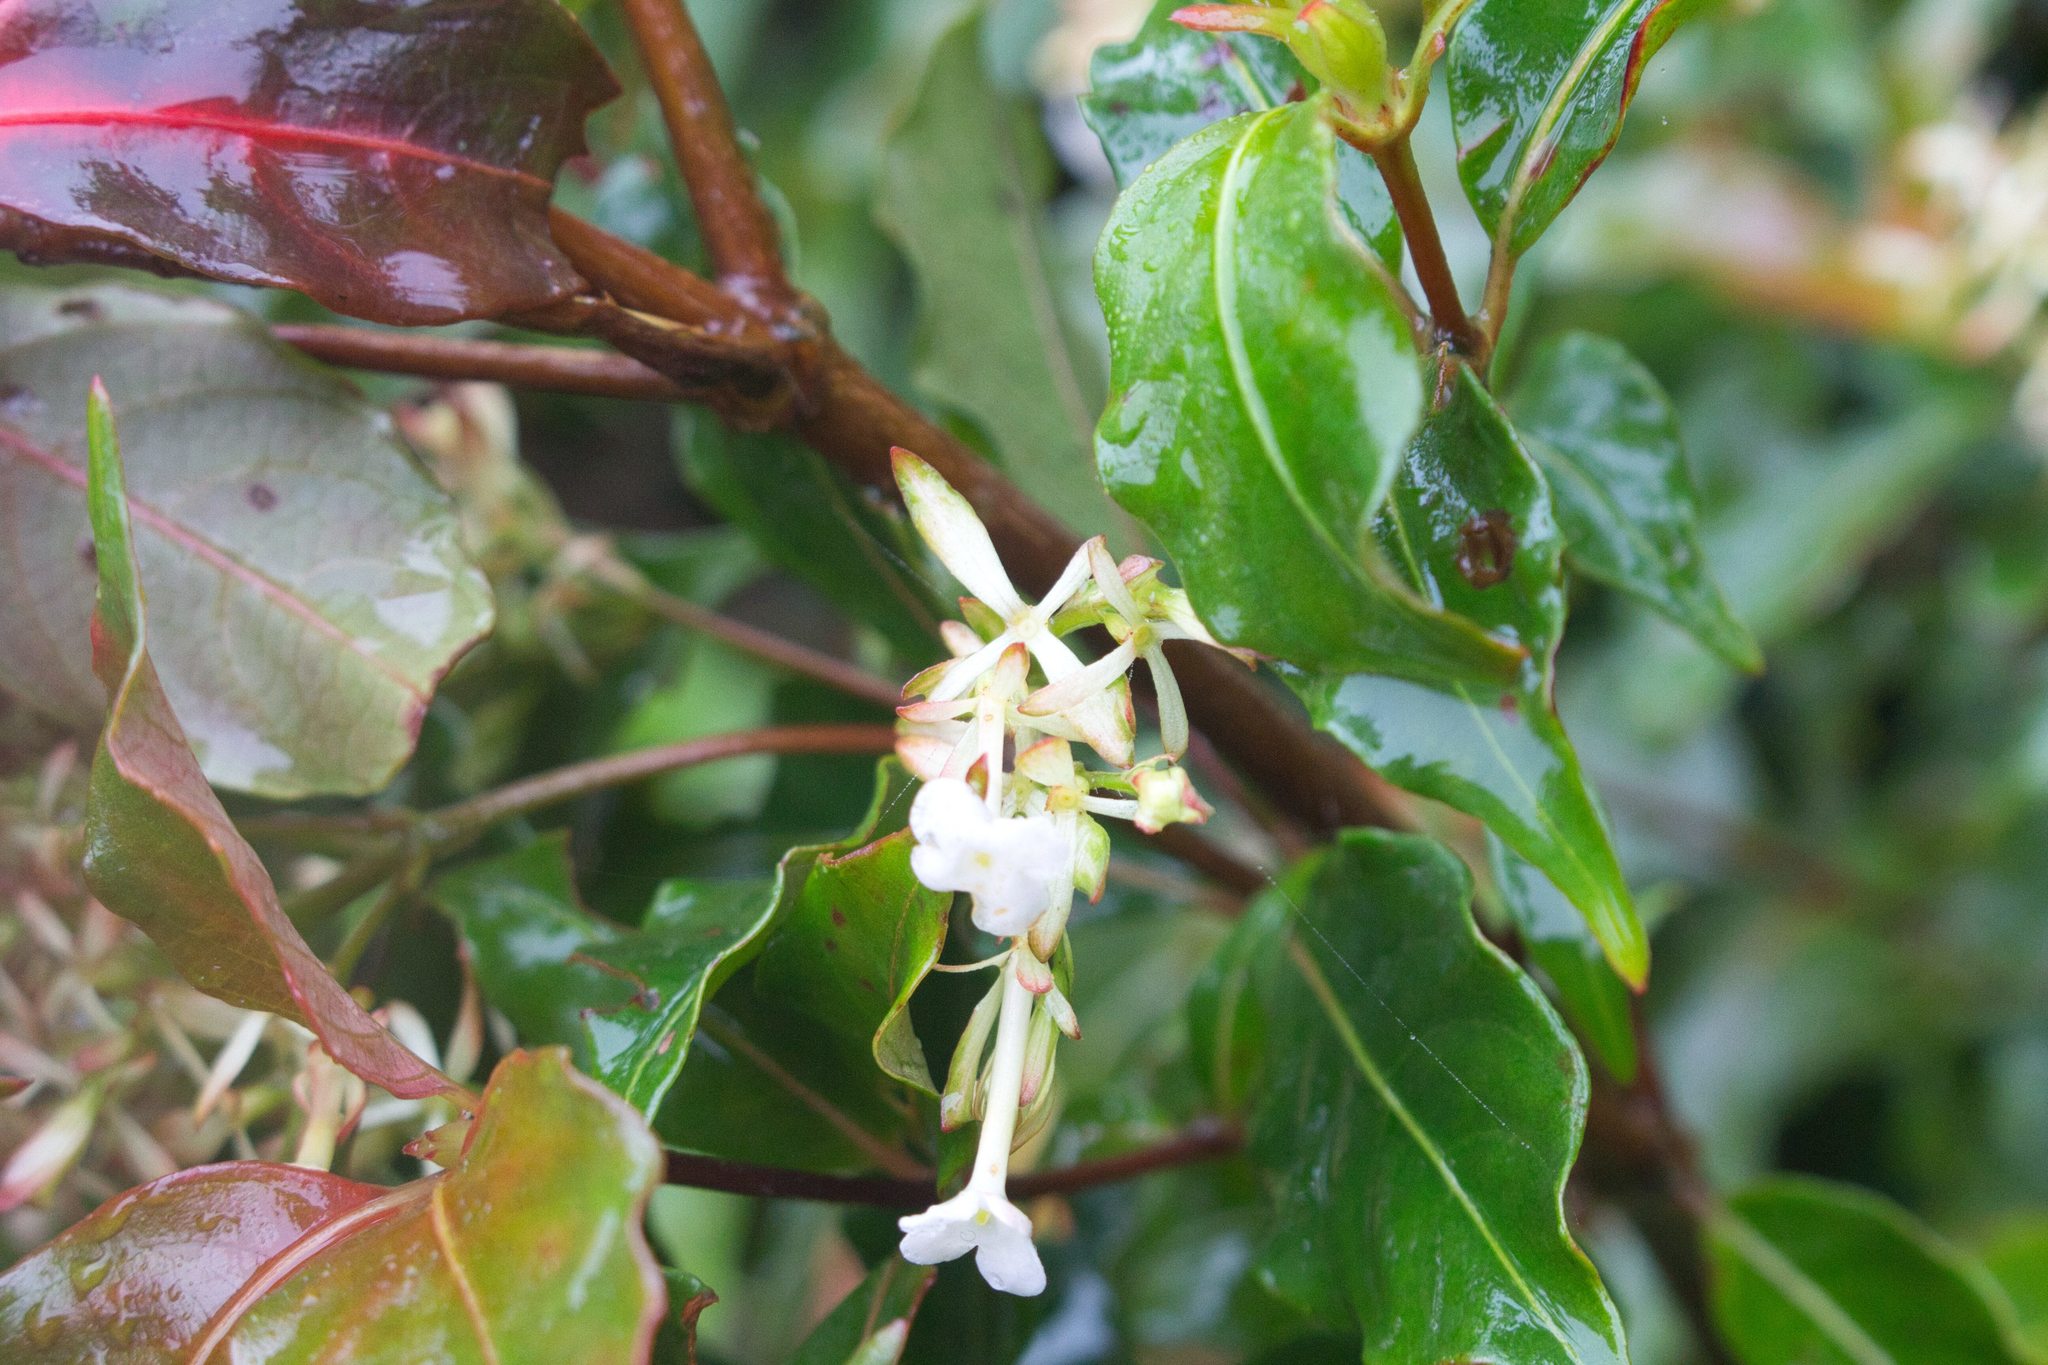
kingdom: Plantae
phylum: Tracheophyta
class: Magnoliopsida
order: Gentianales
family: Rubiaceae
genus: Arachnothryx
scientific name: Arachnothryx monteverdensis
